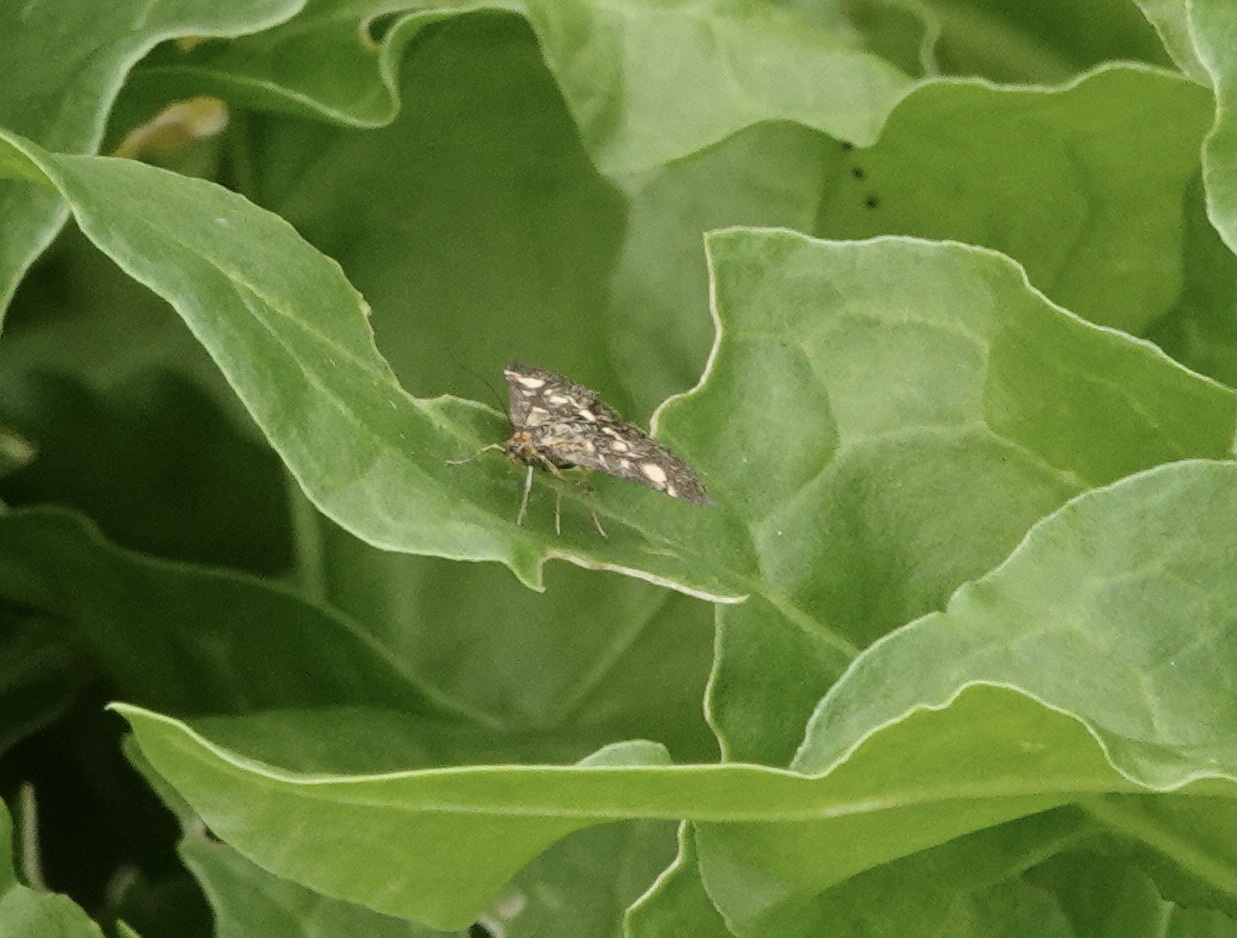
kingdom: Animalia
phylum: Arthropoda
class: Insecta
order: Lepidoptera
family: Crambidae
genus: Pyrausta
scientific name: Pyrausta aurata
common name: Small purple & gold
